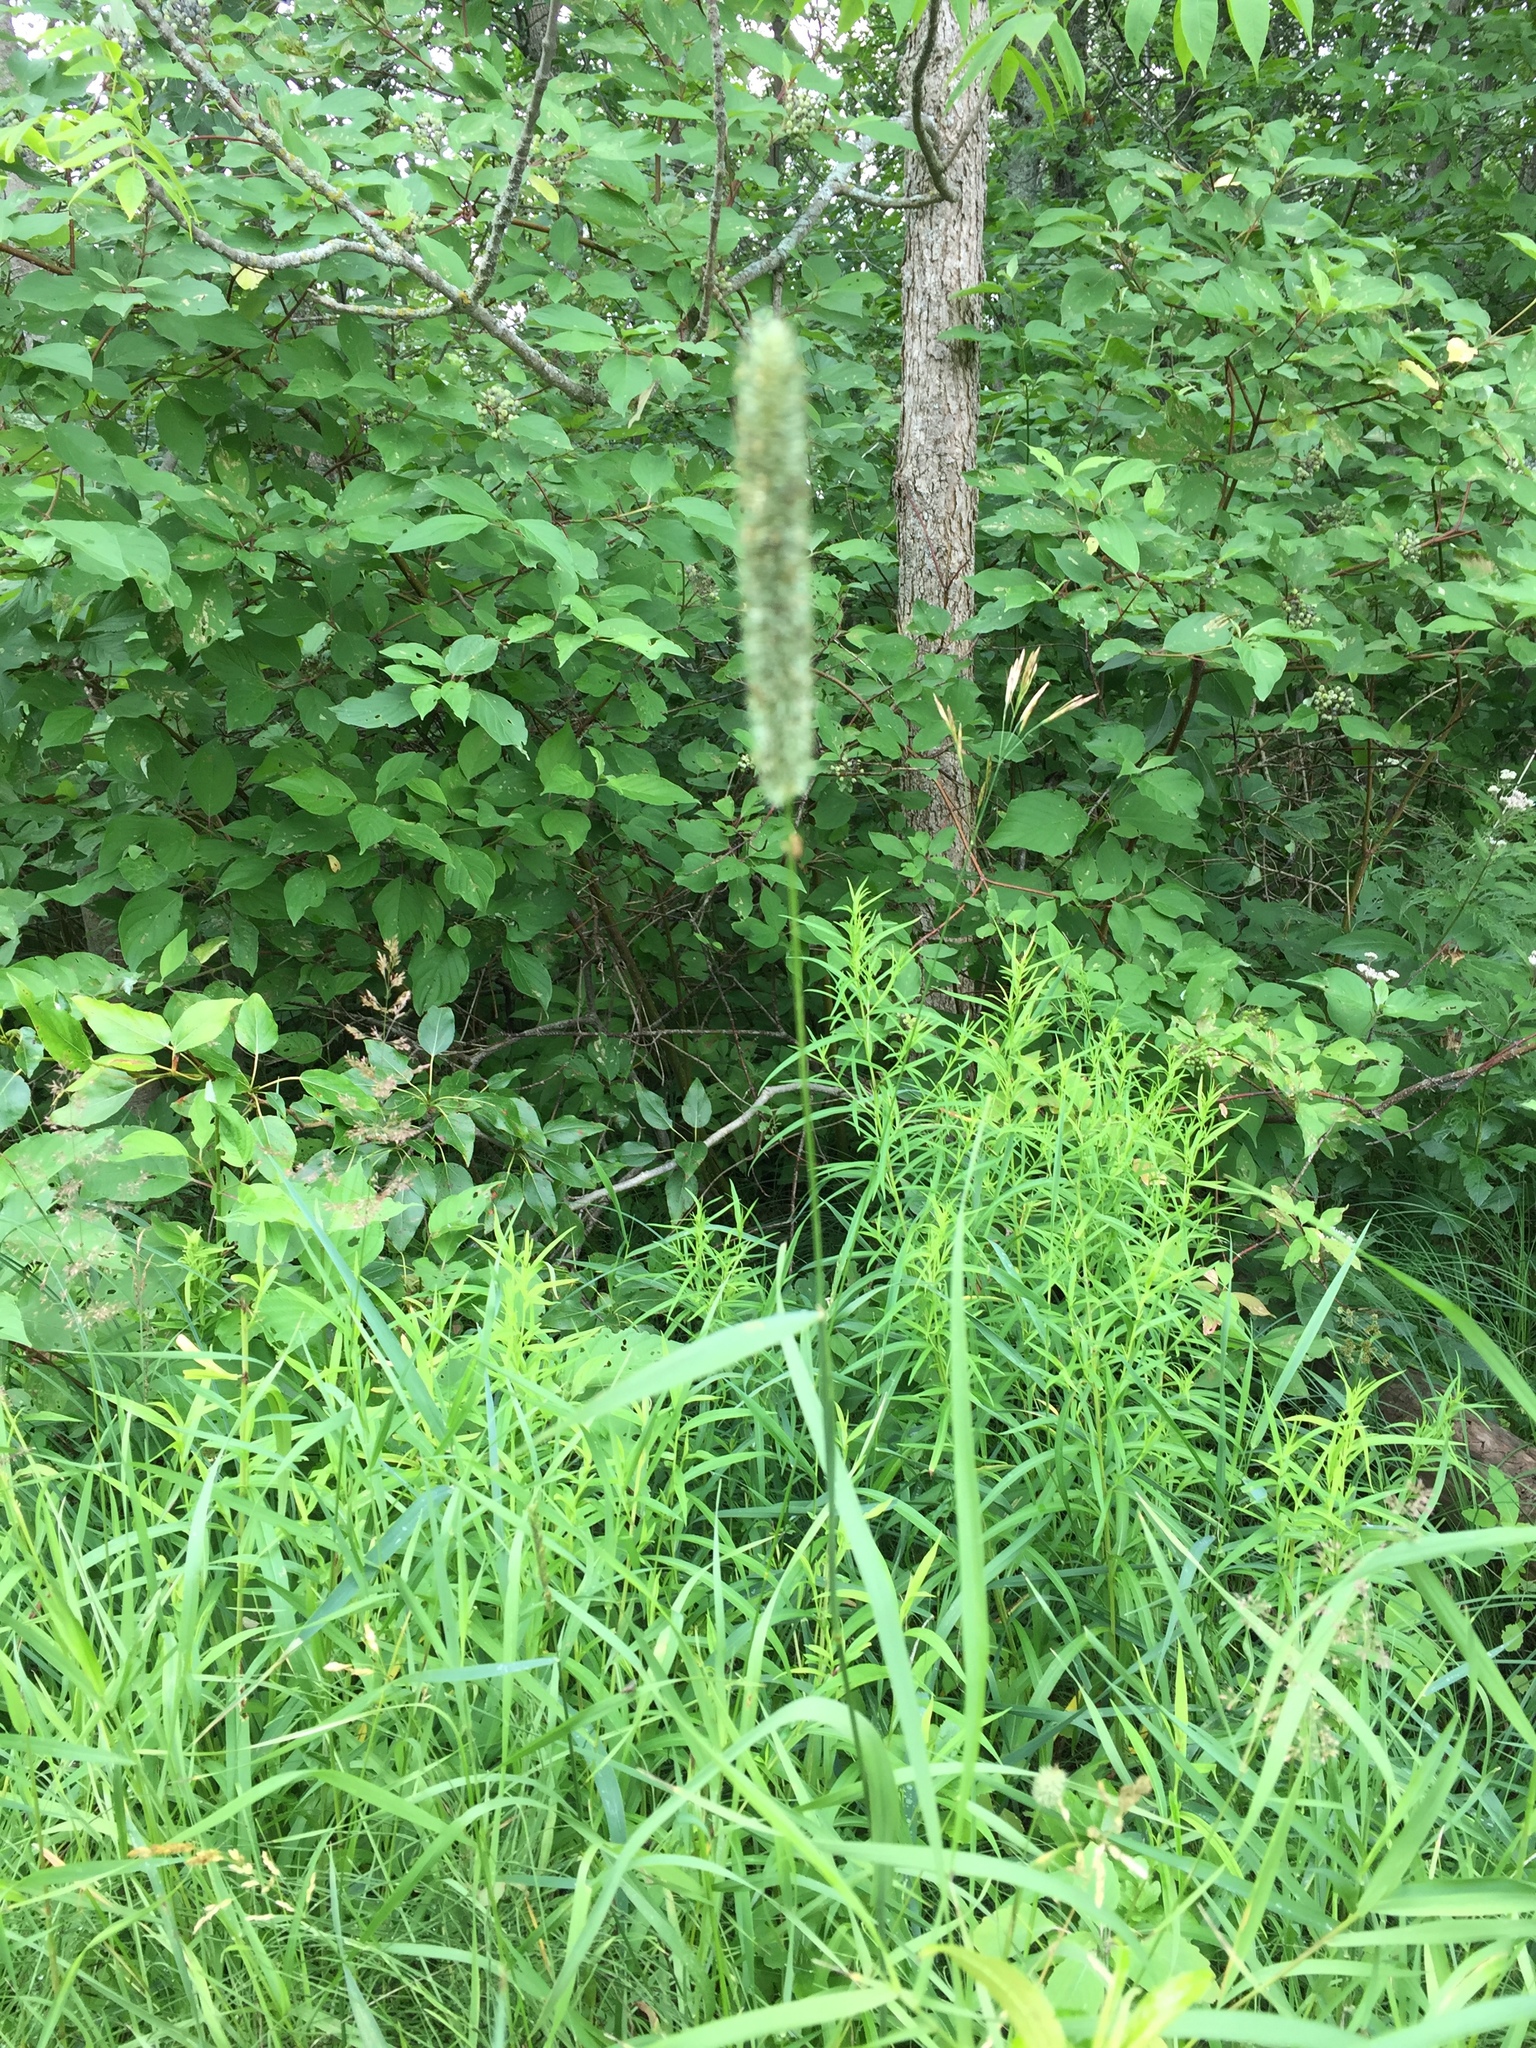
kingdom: Plantae
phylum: Tracheophyta
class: Liliopsida
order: Poales
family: Poaceae
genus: Phleum
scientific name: Phleum pratense
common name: Timothy grass
